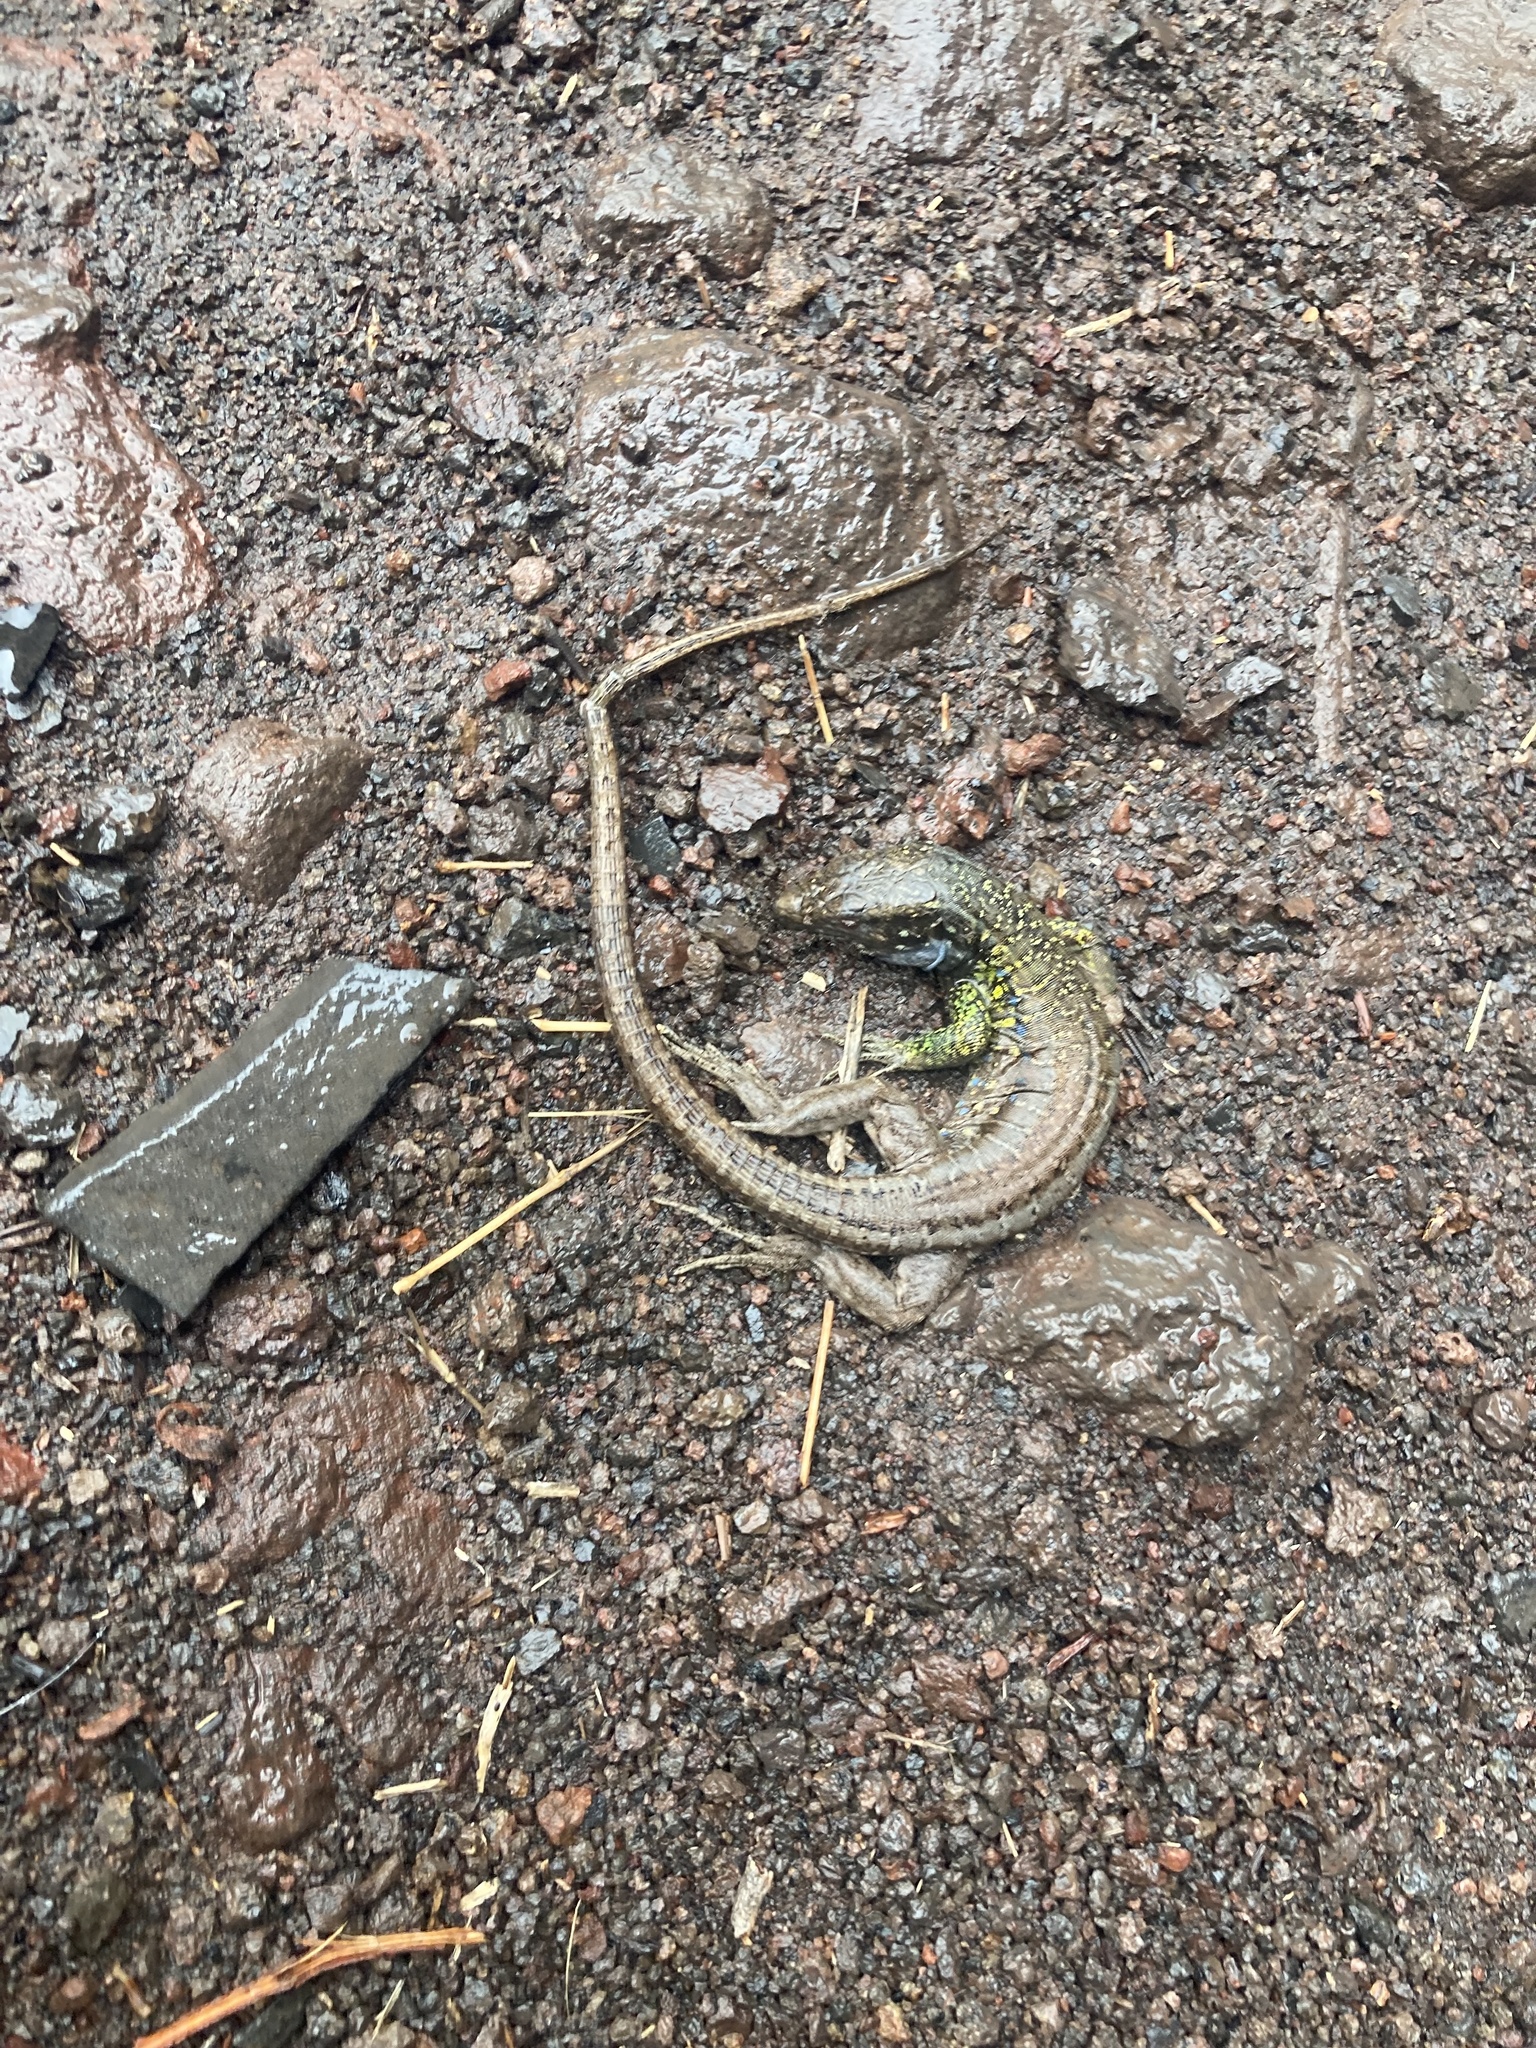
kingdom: Animalia
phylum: Chordata
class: Squamata
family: Lacertidae
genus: Gallotia
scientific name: Gallotia galloti
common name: Gallot's lizard
